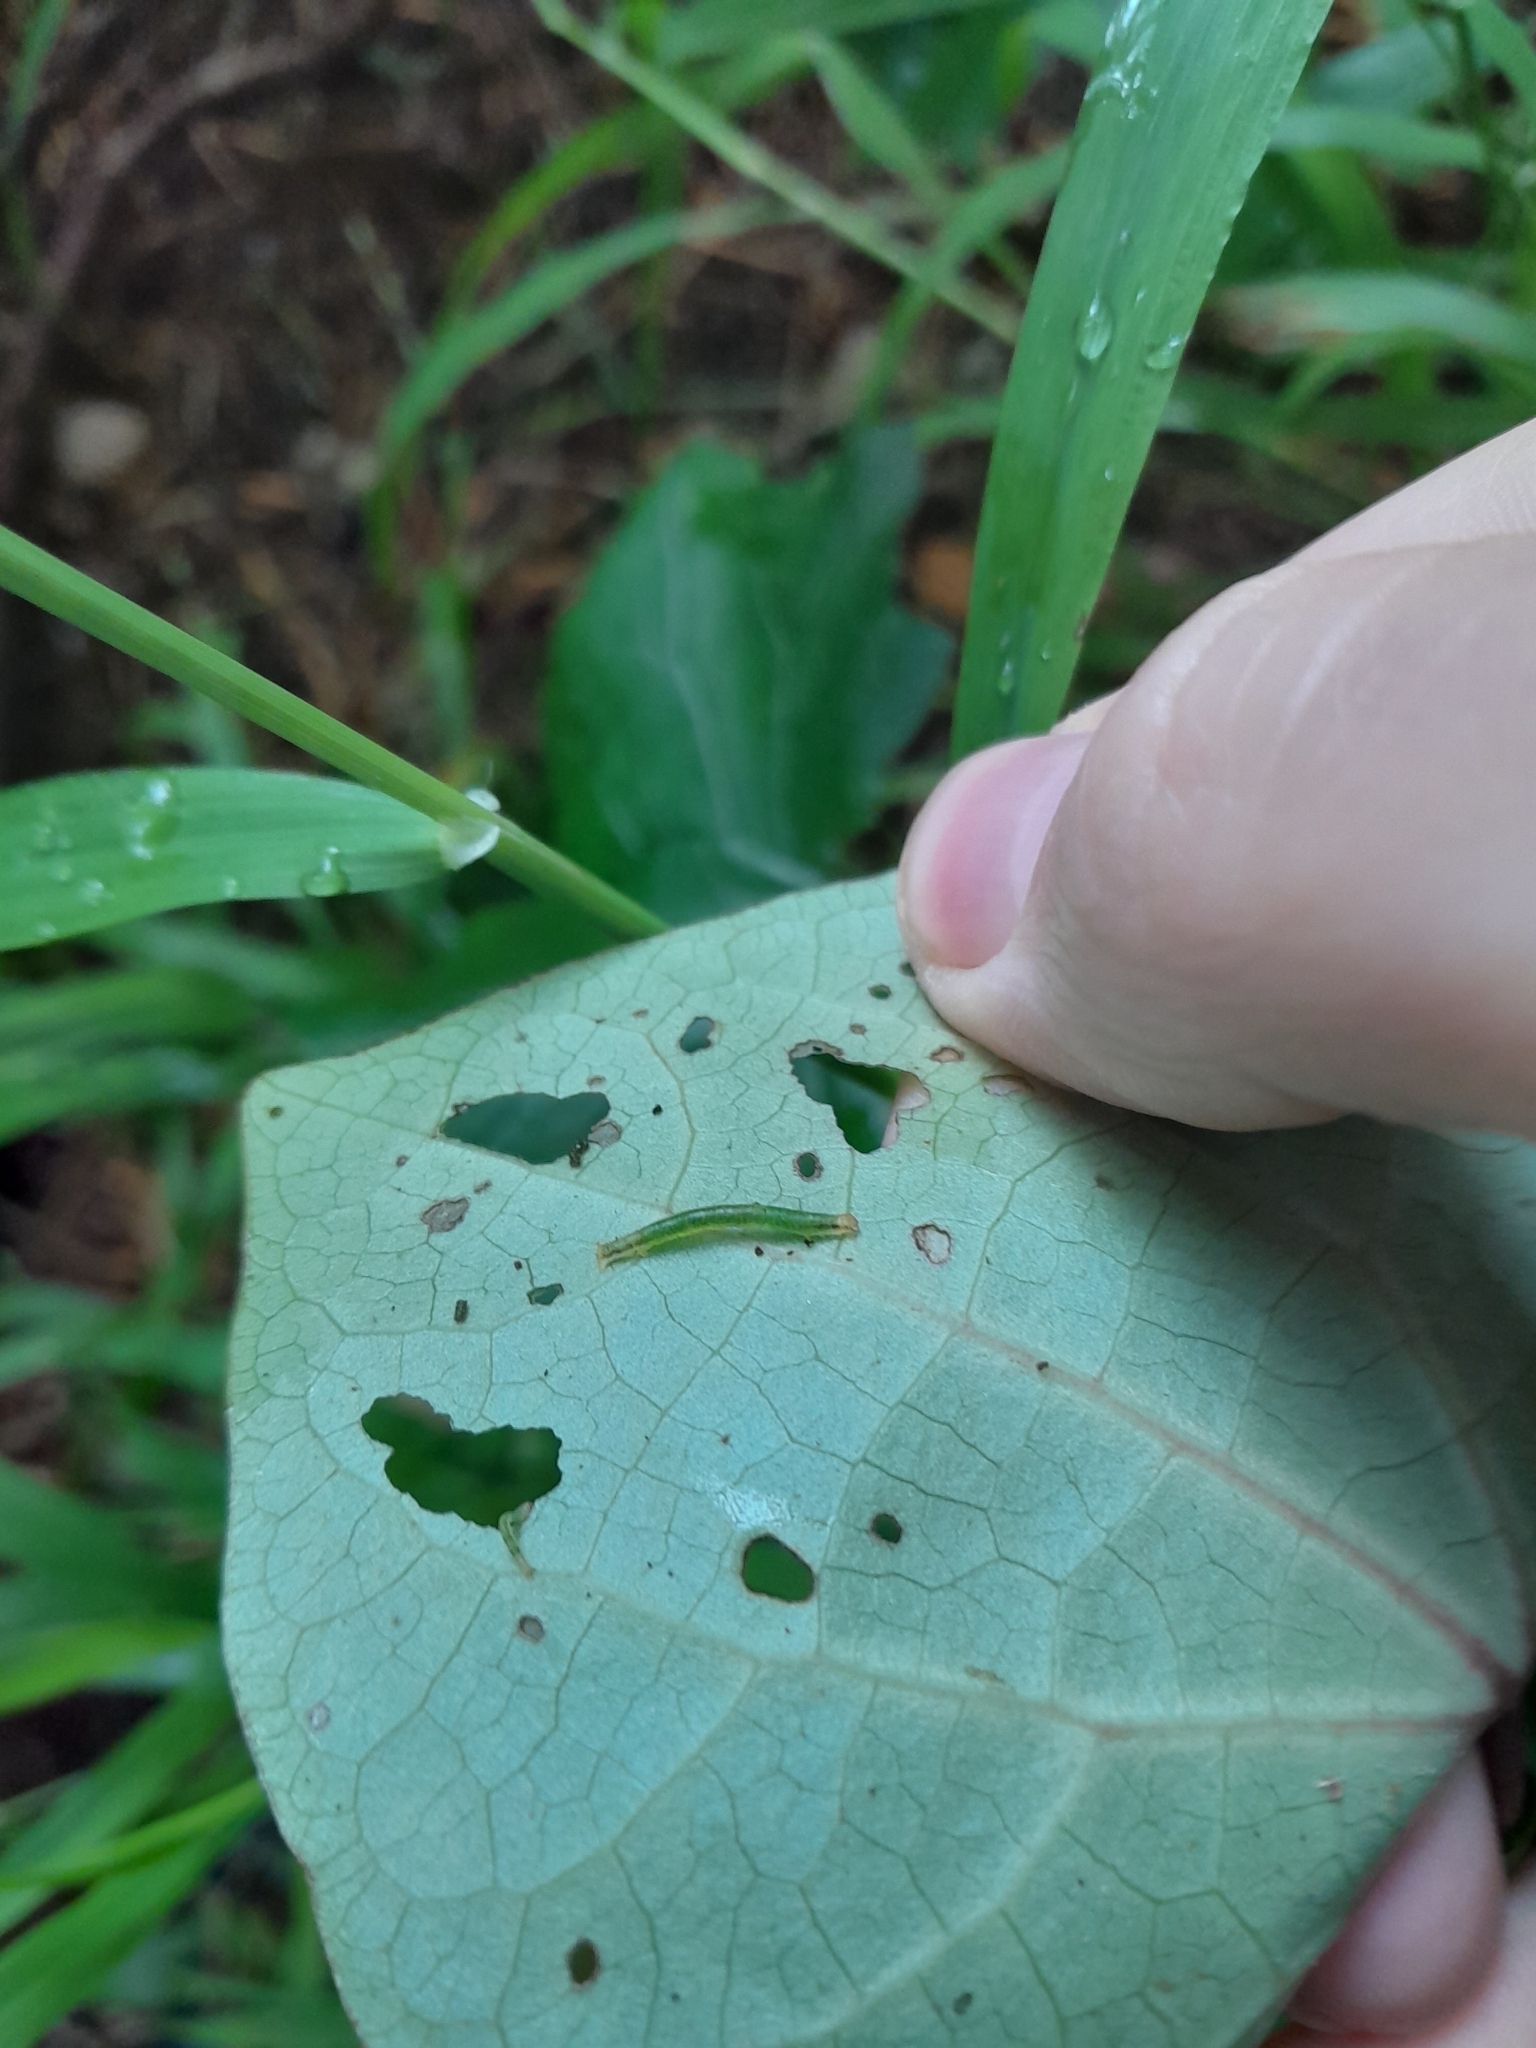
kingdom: Animalia
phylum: Arthropoda
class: Insecta
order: Lepidoptera
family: Geometridae
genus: Cleora
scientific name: Cleora scriptaria
